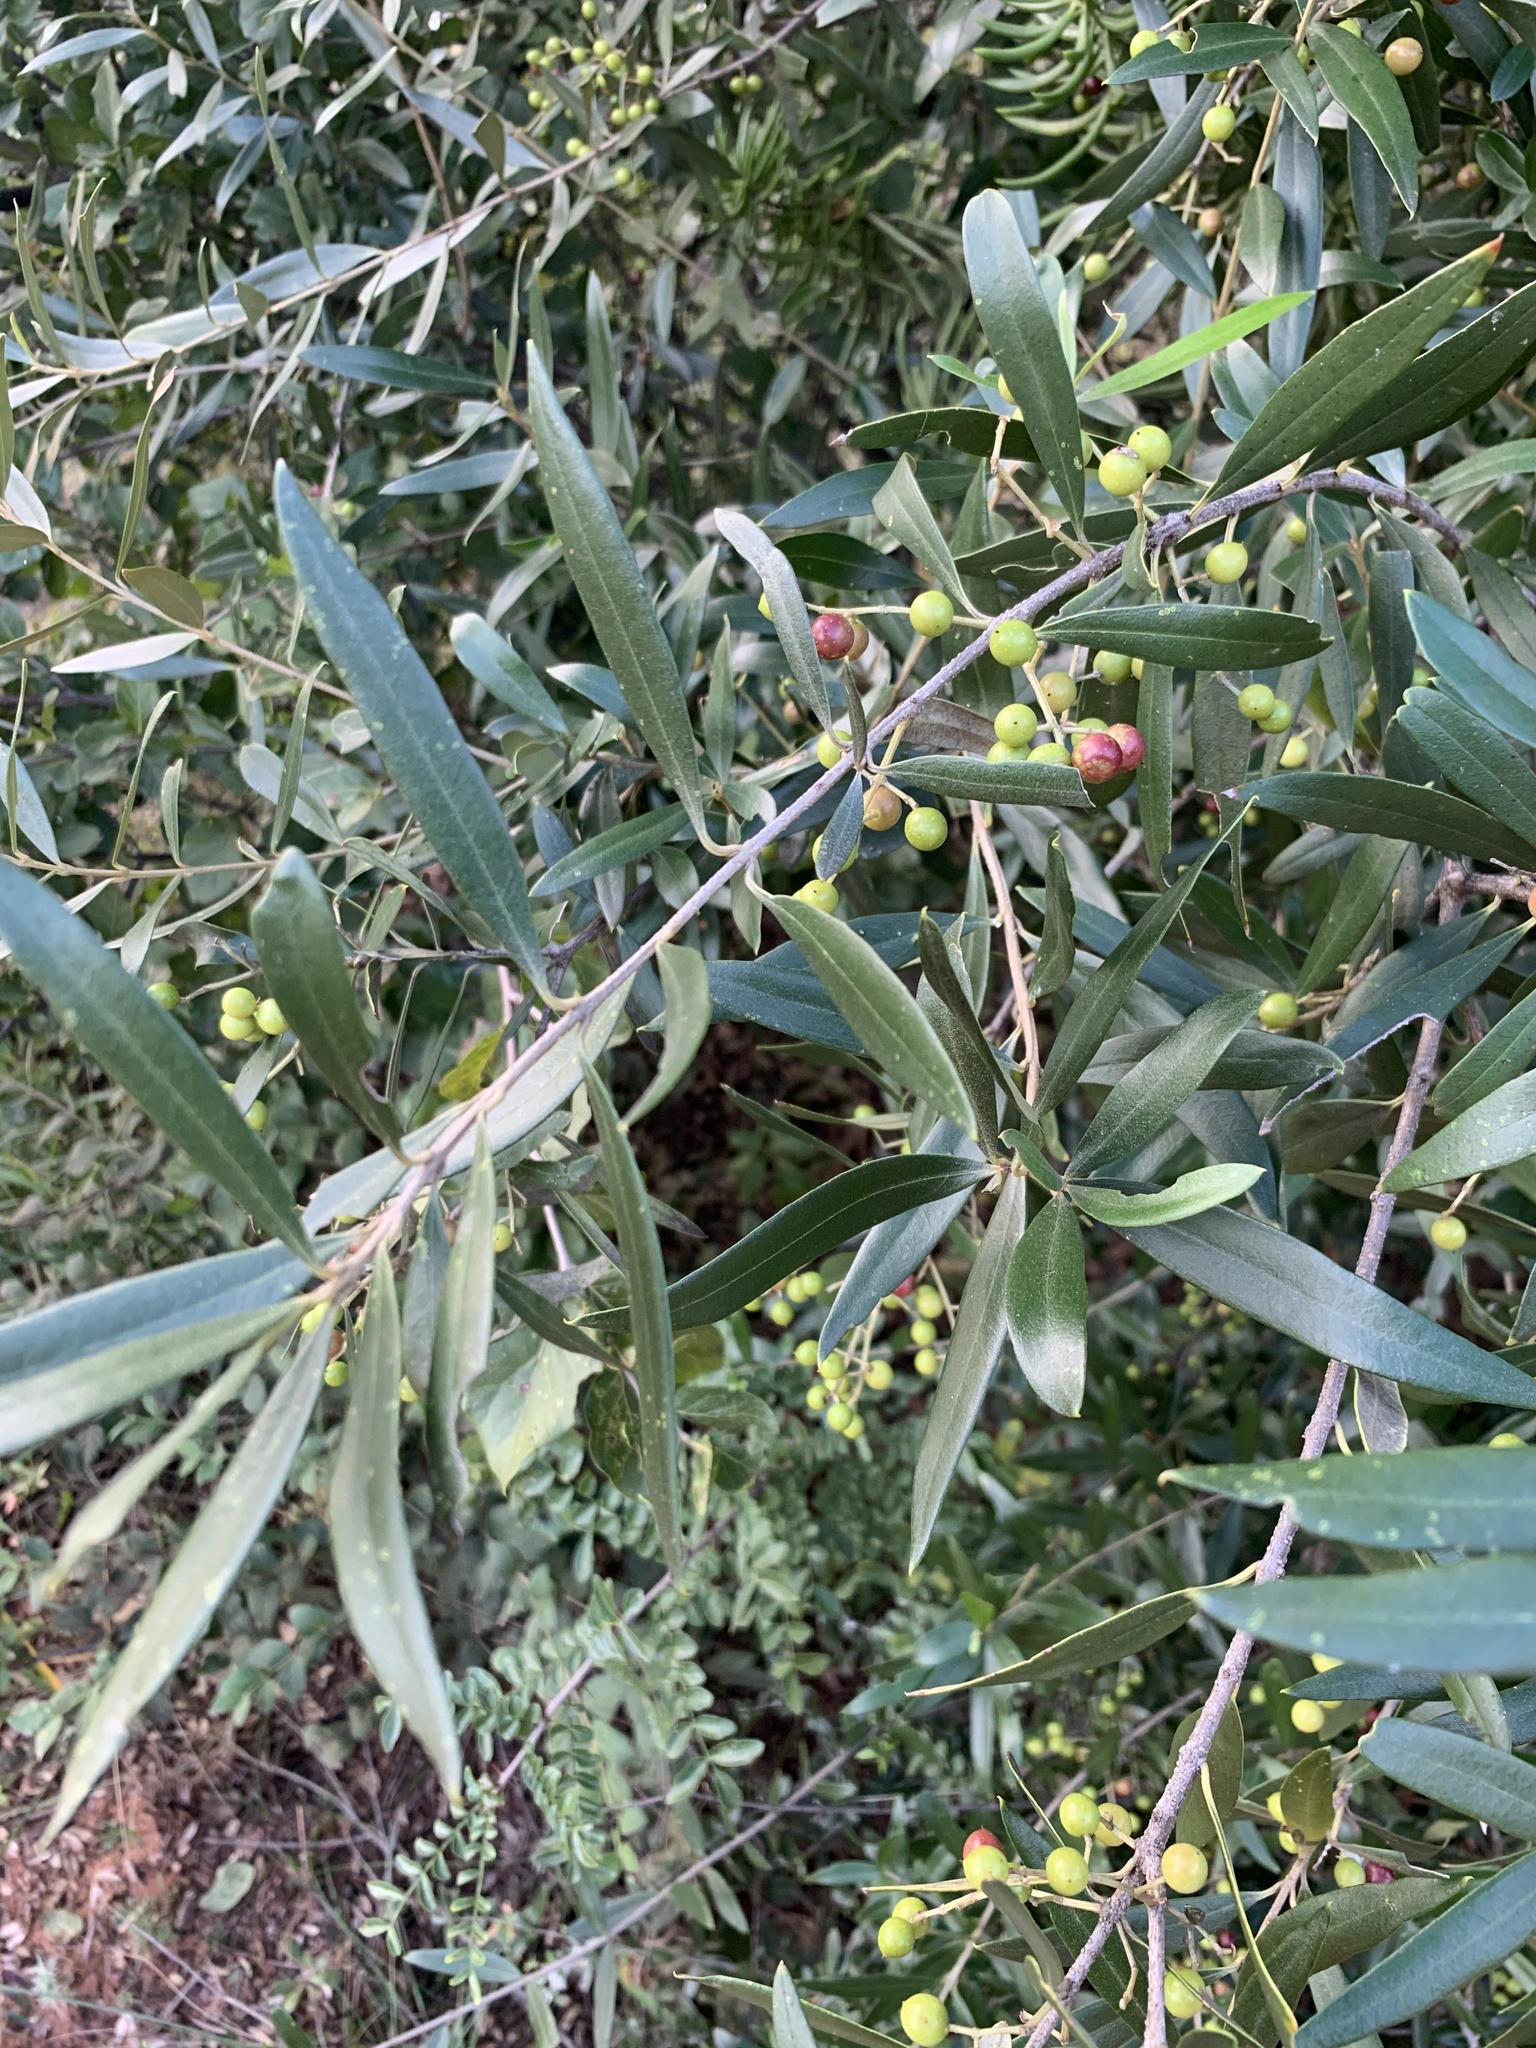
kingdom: Plantae
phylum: Tracheophyta
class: Magnoliopsida
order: Lamiales
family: Oleaceae
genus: Olea
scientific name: Olea europaea
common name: Olive
